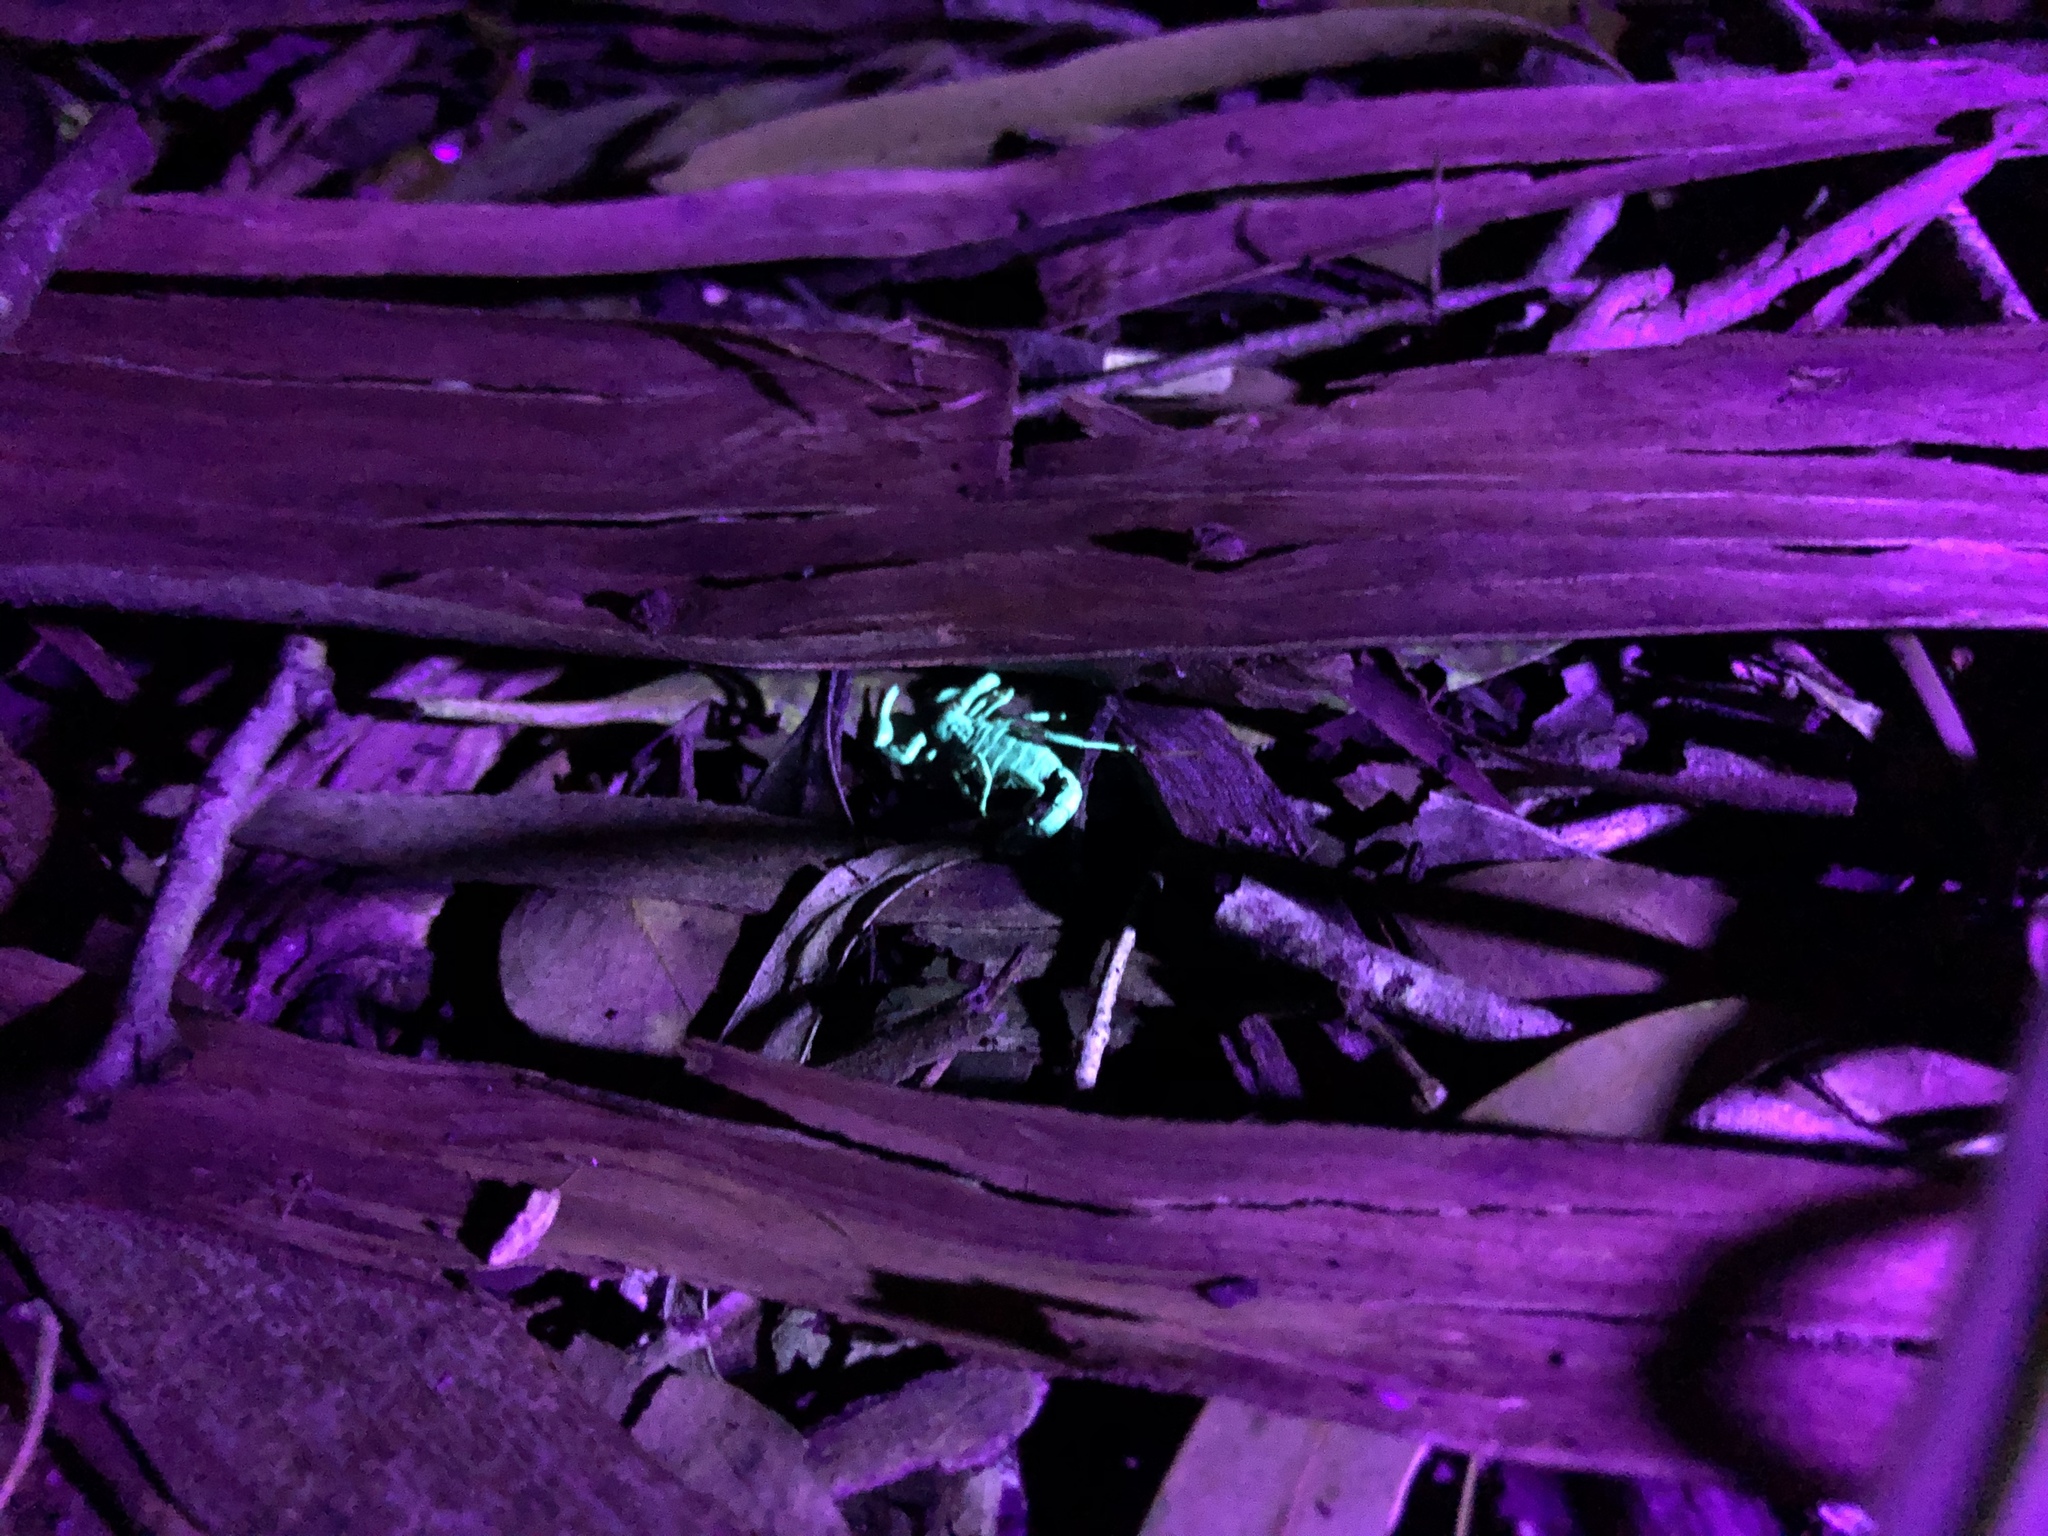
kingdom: Animalia
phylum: Arthropoda
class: Arachnida
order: Scorpiones
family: Bothriuridae
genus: Cercophonius
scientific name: Cercophonius squama
